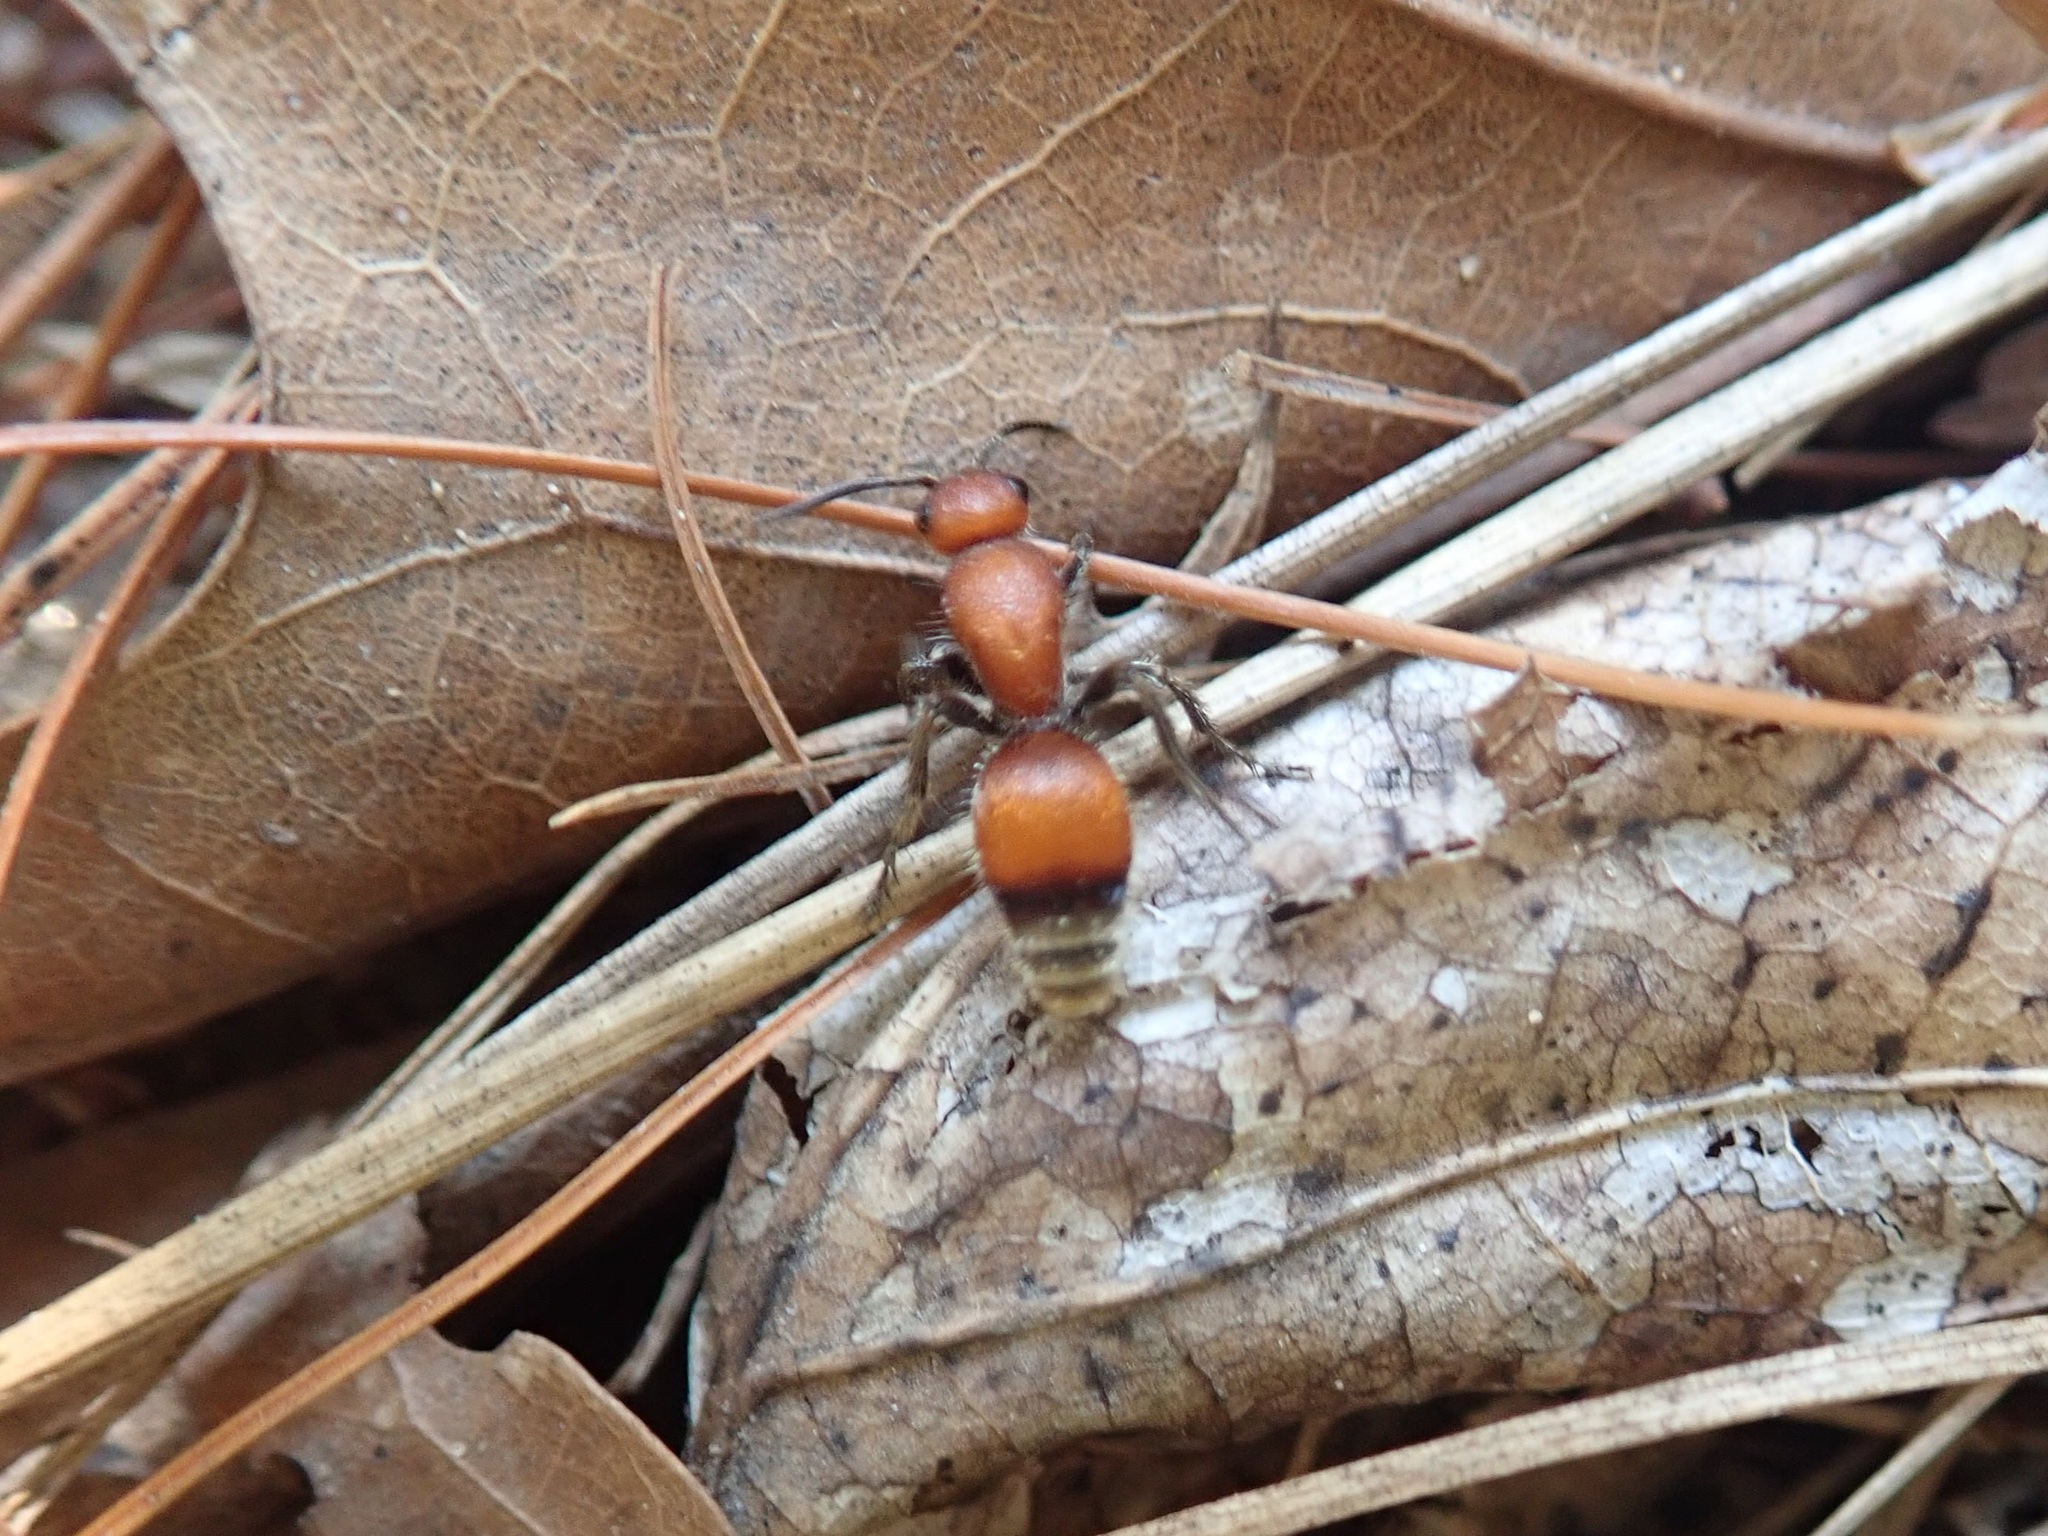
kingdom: Animalia
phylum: Arthropoda
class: Insecta
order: Hymenoptera
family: Mutillidae
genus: Dasymutilla
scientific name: Dasymutilla
